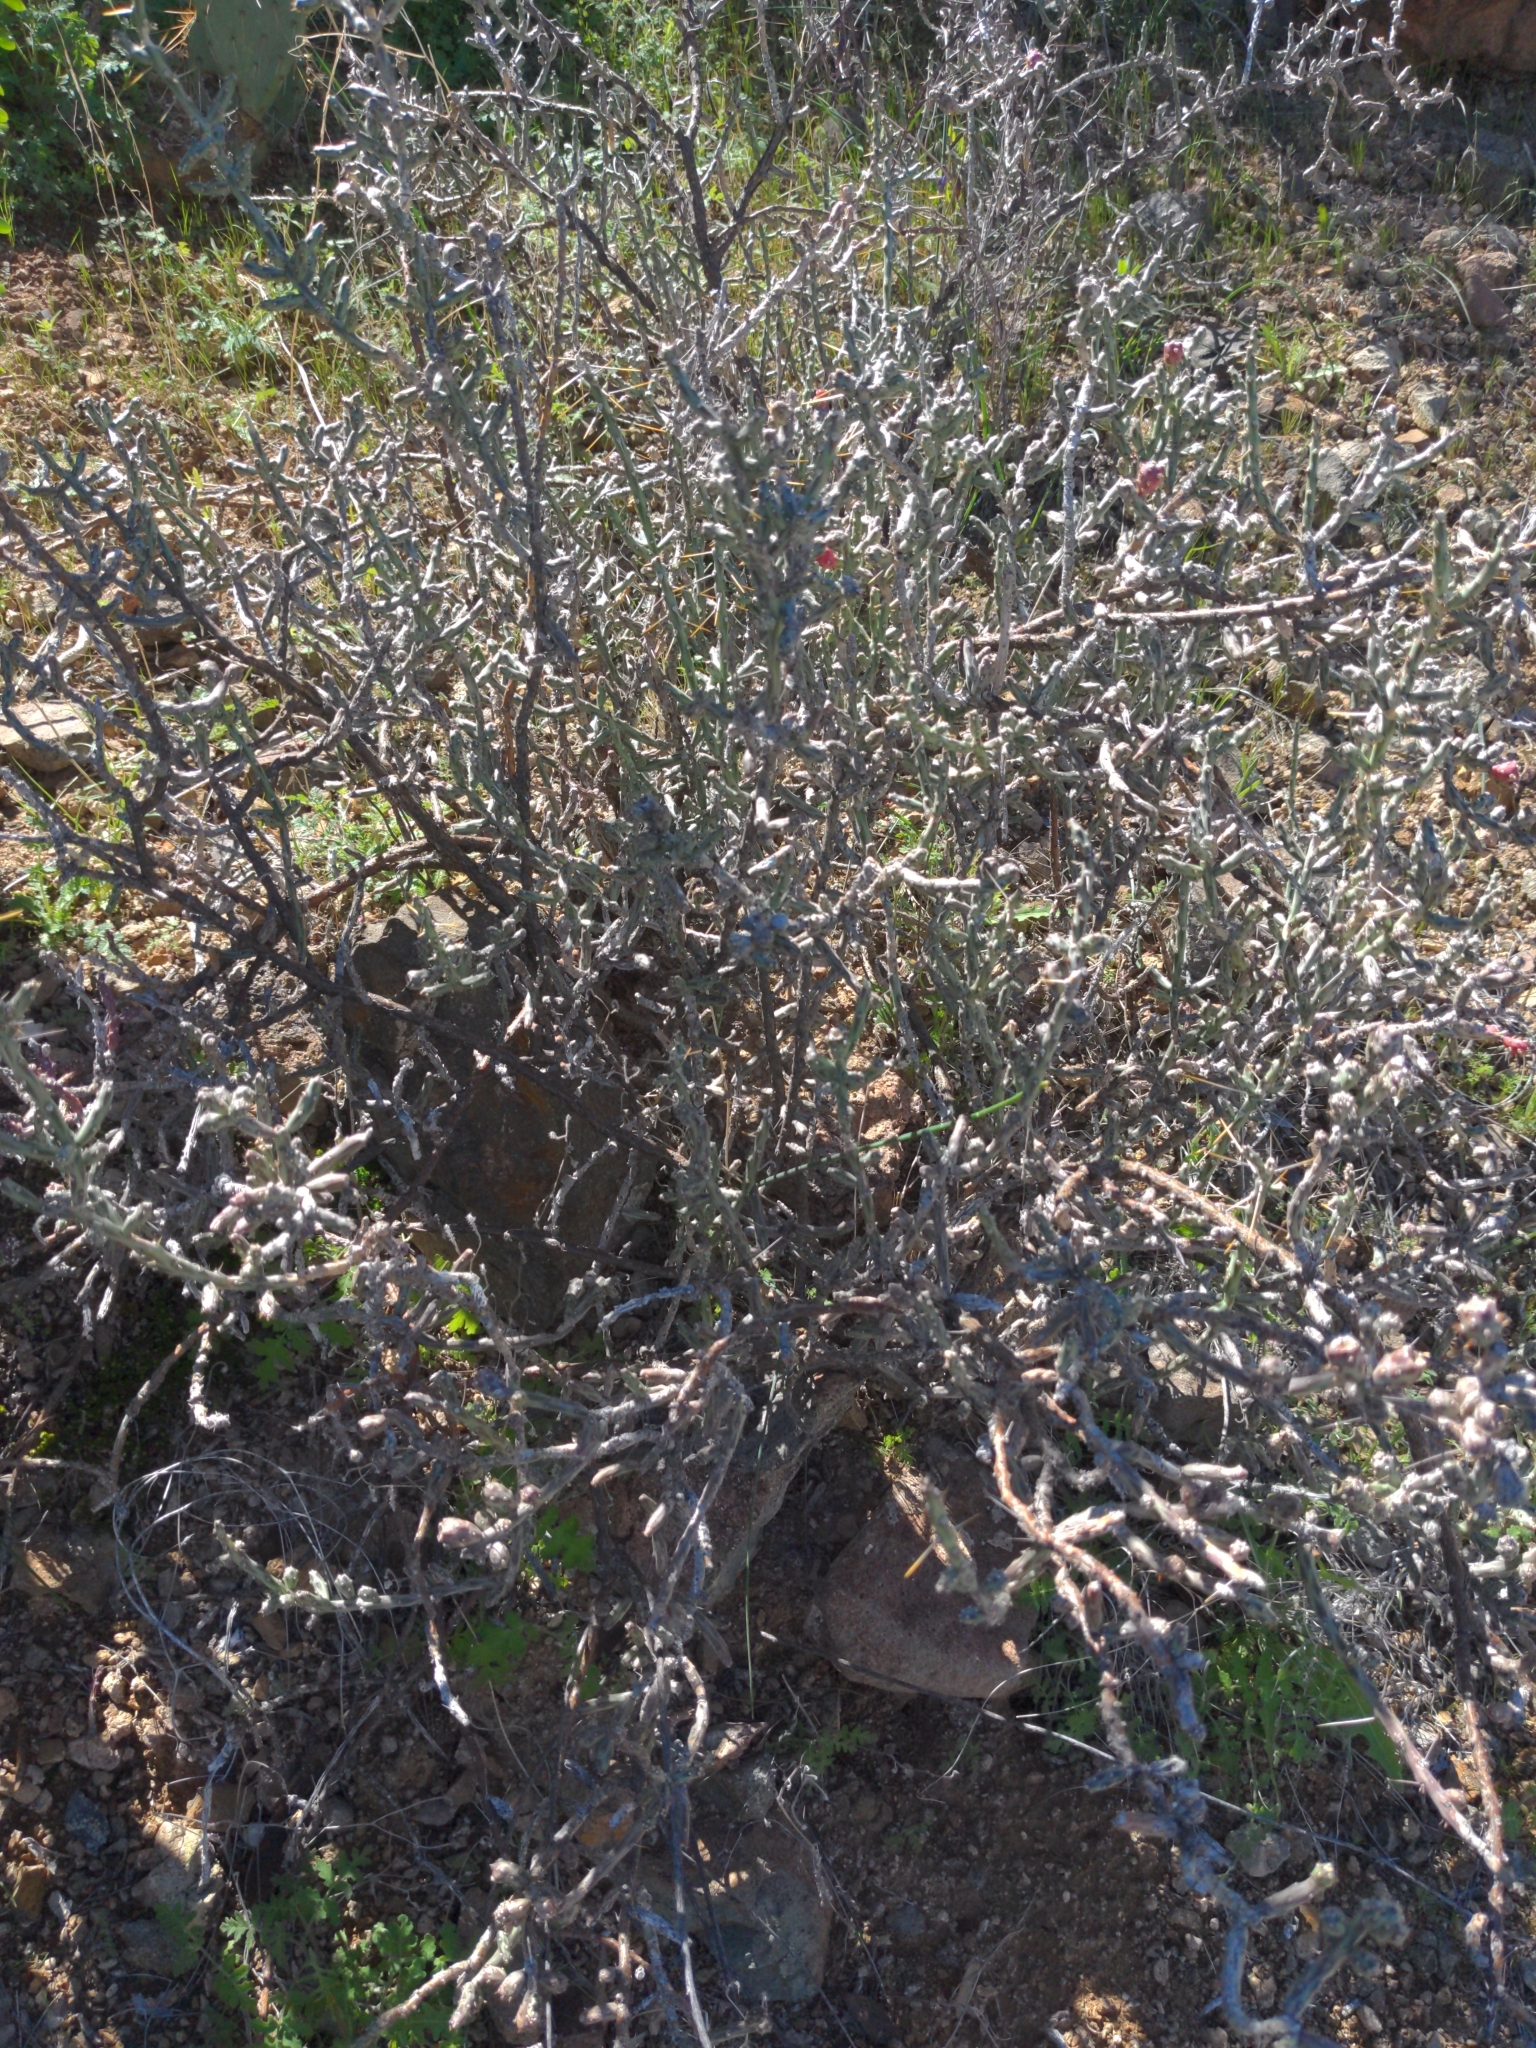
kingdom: Plantae
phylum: Tracheophyta
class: Magnoliopsida
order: Caryophyllales
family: Cactaceae
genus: Cylindropuntia
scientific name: Cylindropuntia leptocaulis
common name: Christmas cactus
